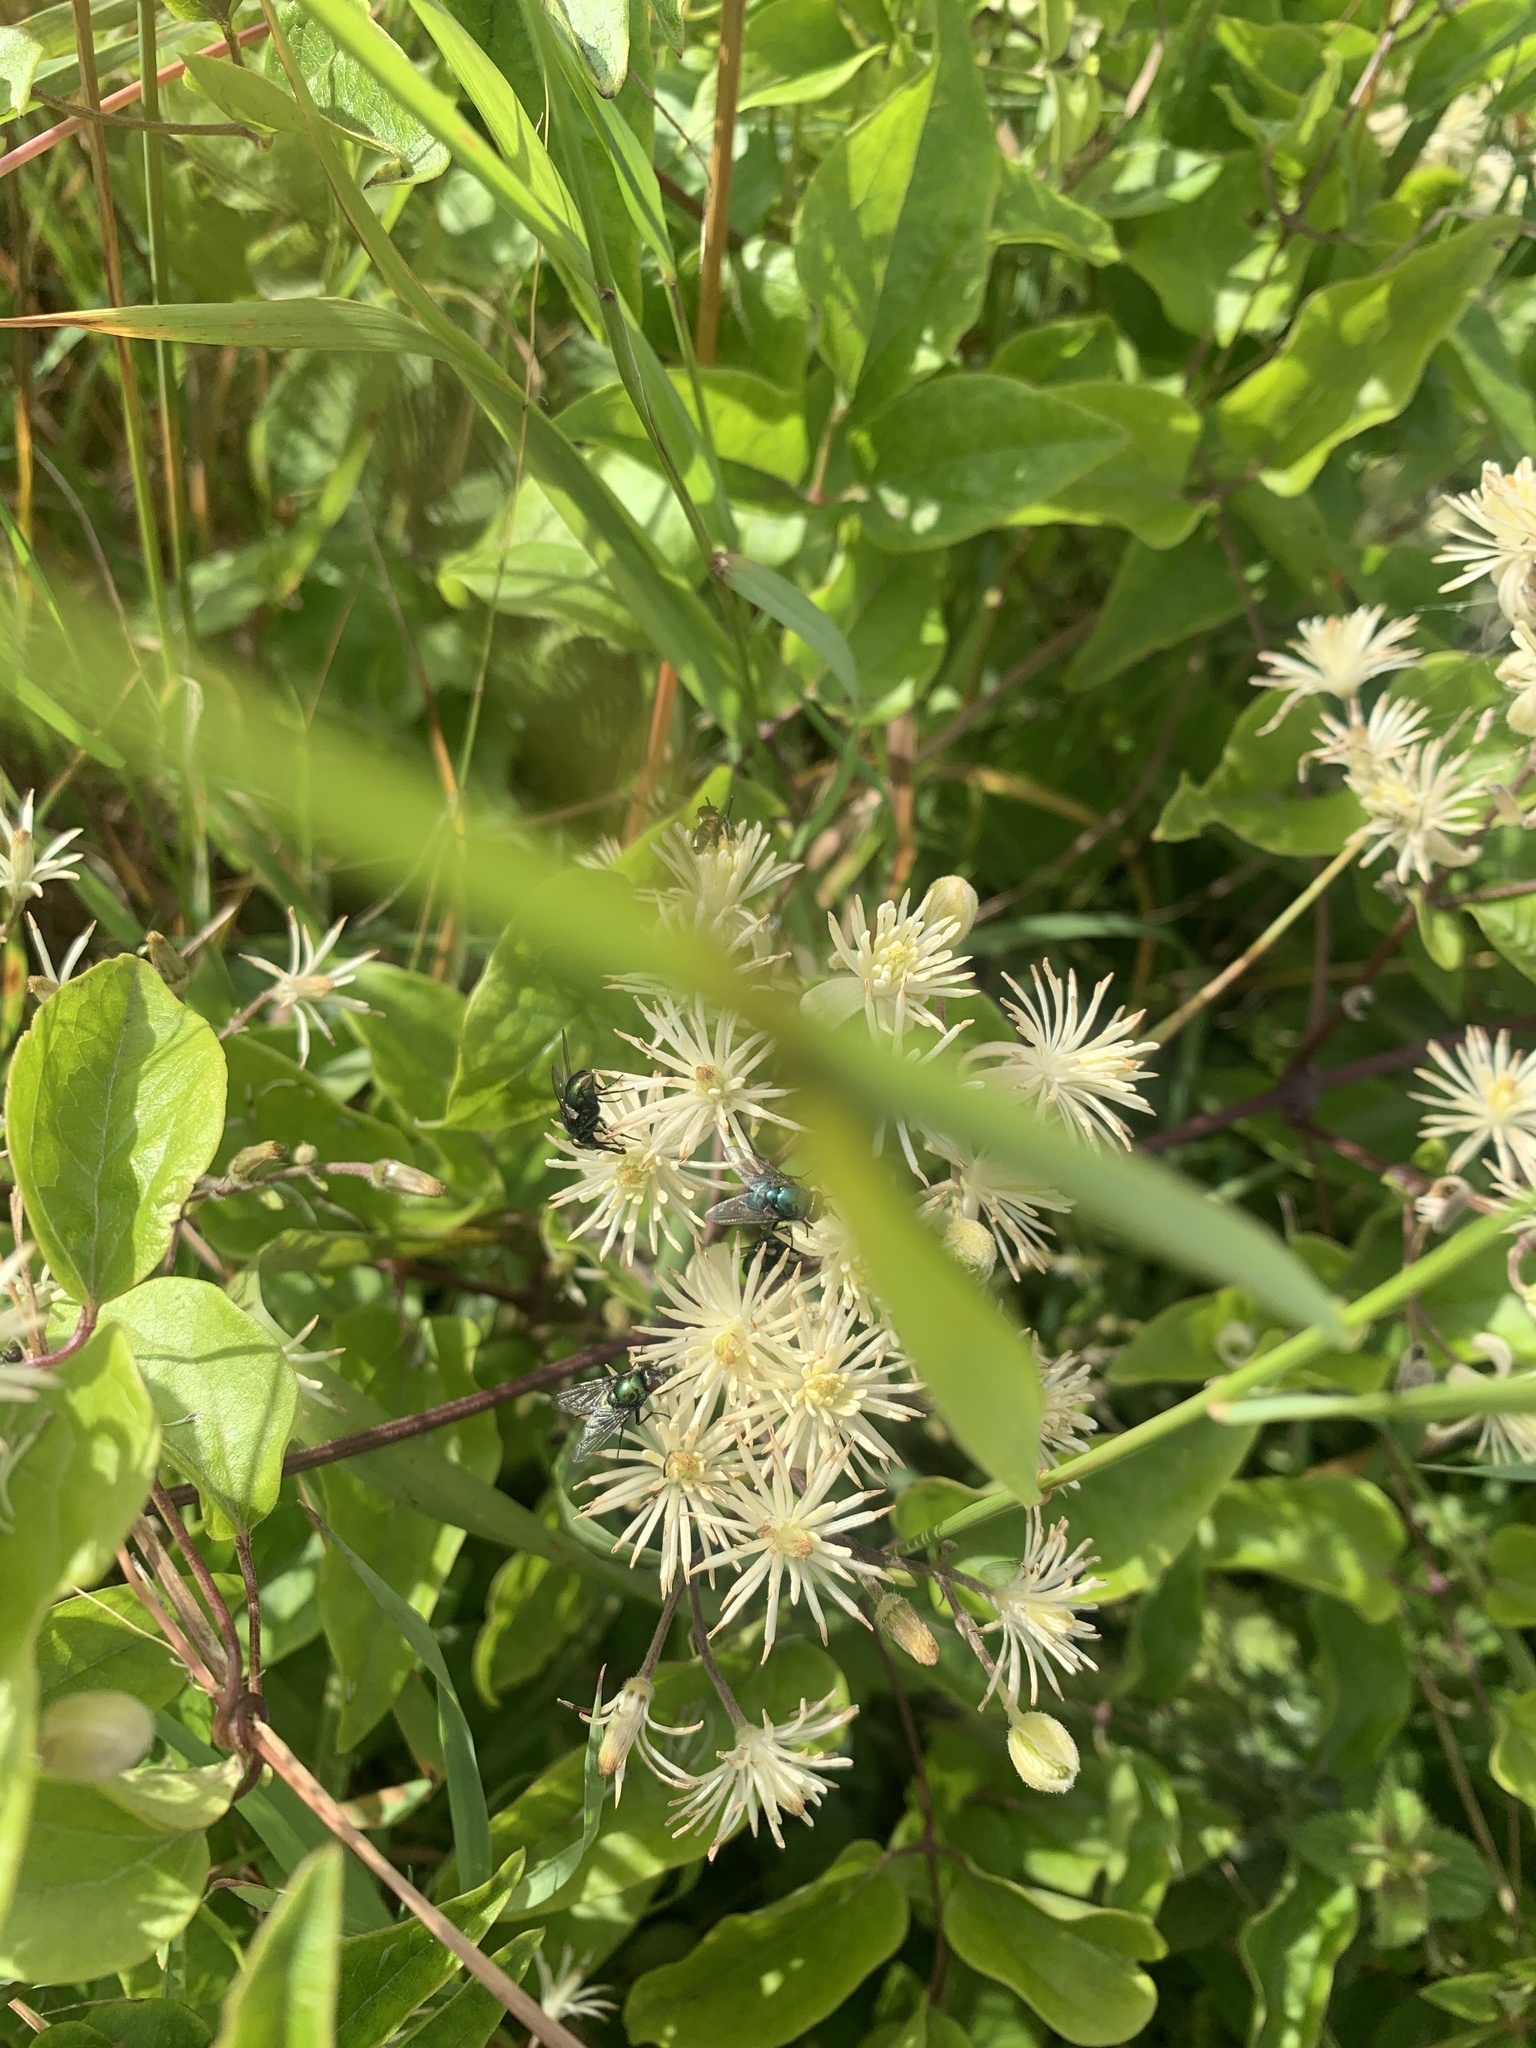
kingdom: Plantae
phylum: Tracheophyta
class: Magnoliopsida
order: Ranunculales
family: Ranunculaceae
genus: Clematis
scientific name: Clematis vitalba
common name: Evergreen clematis
